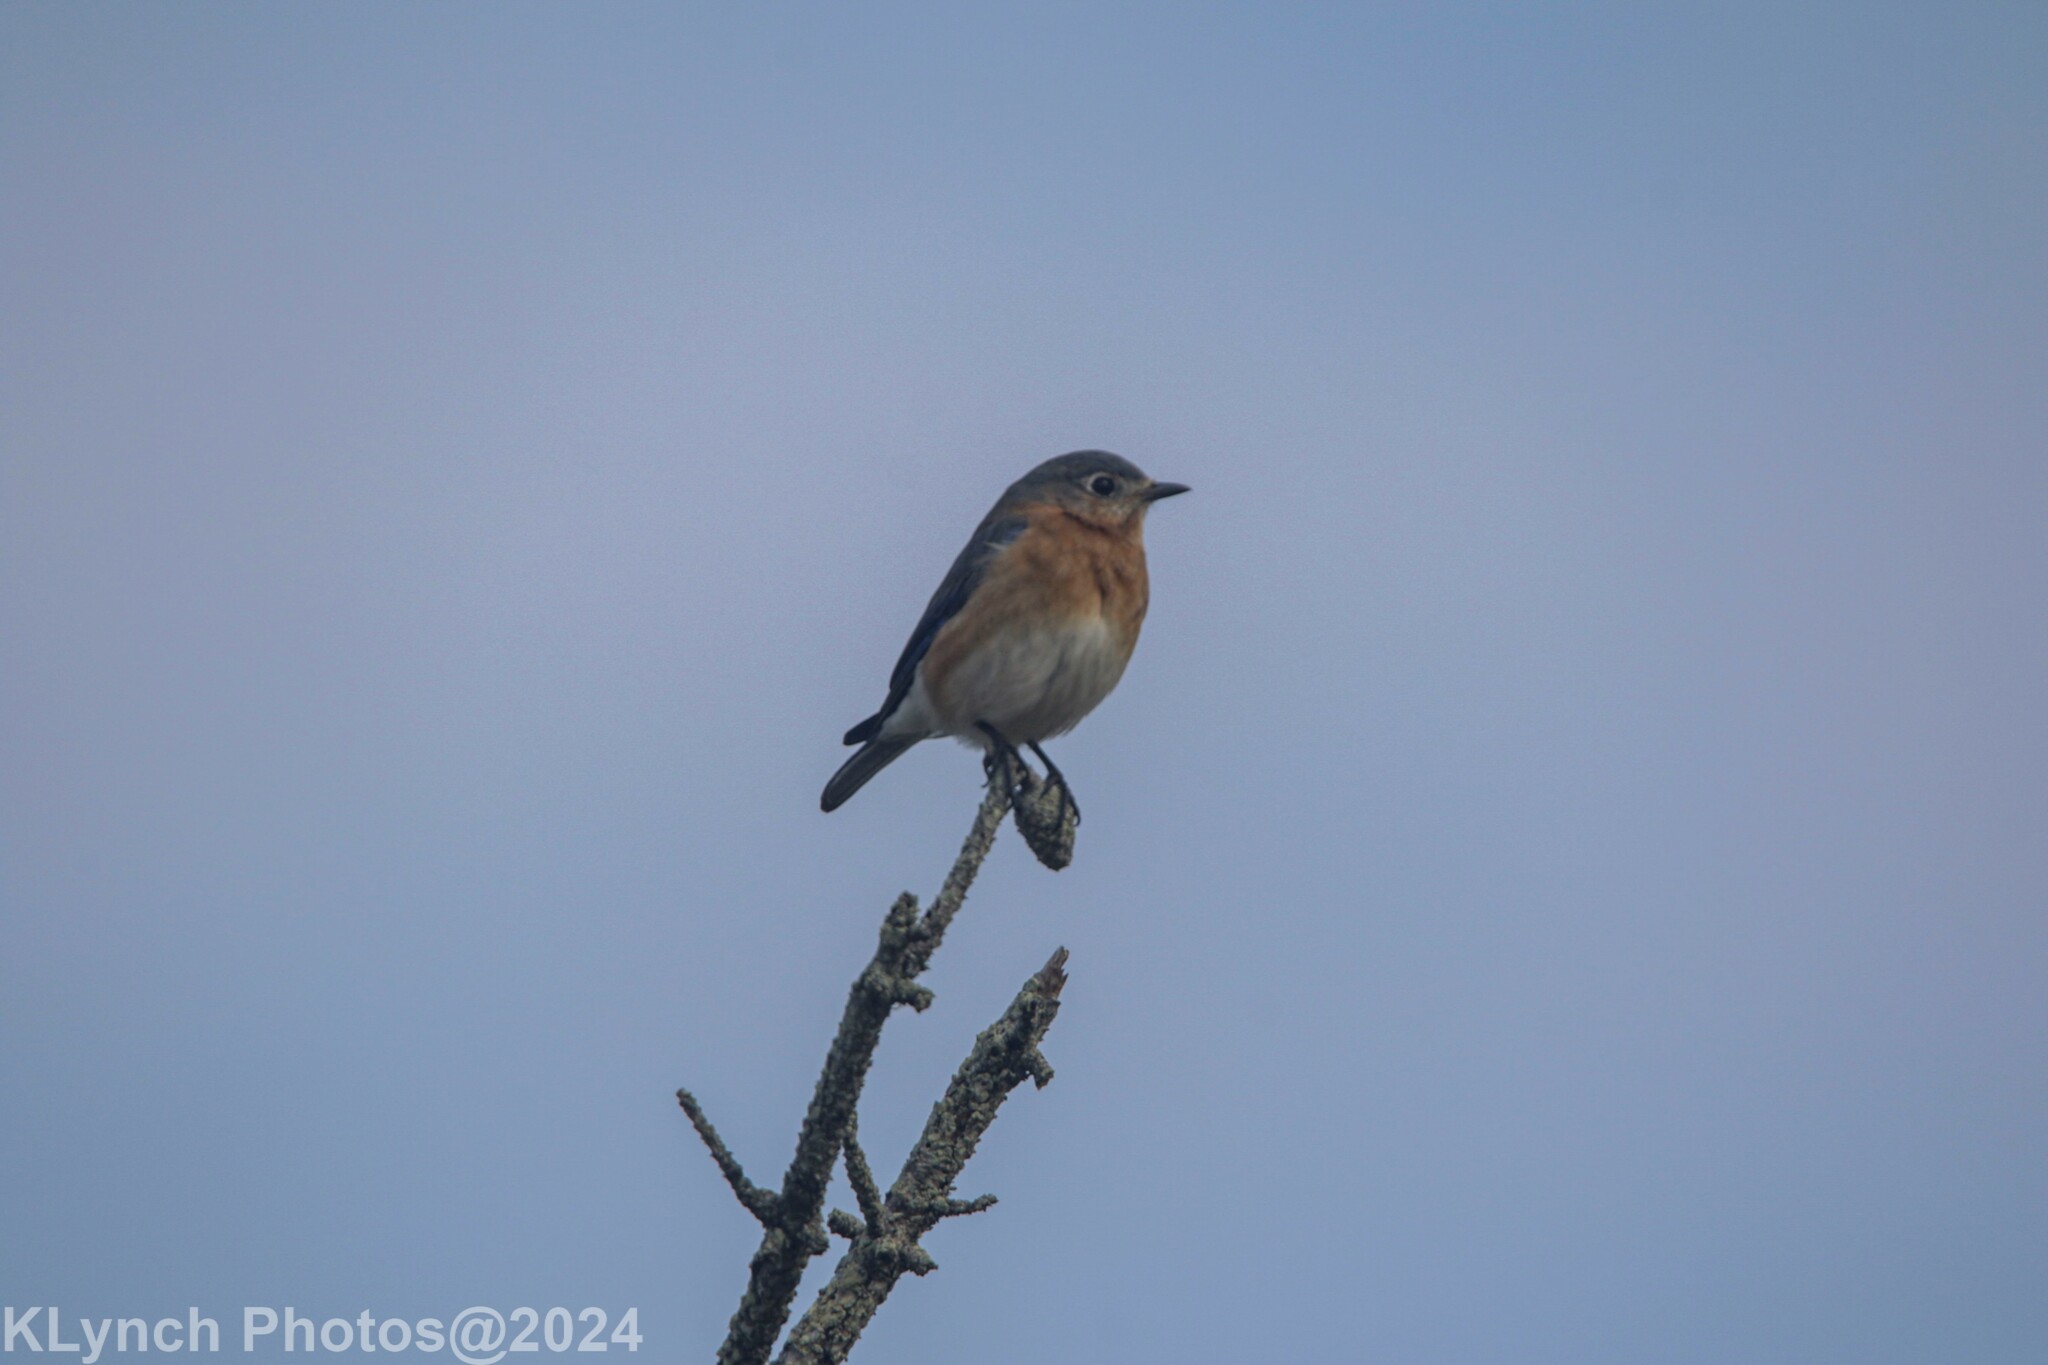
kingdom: Animalia
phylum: Chordata
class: Aves
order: Passeriformes
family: Turdidae
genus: Sialia
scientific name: Sialia sialis
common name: Eastern bluebird
